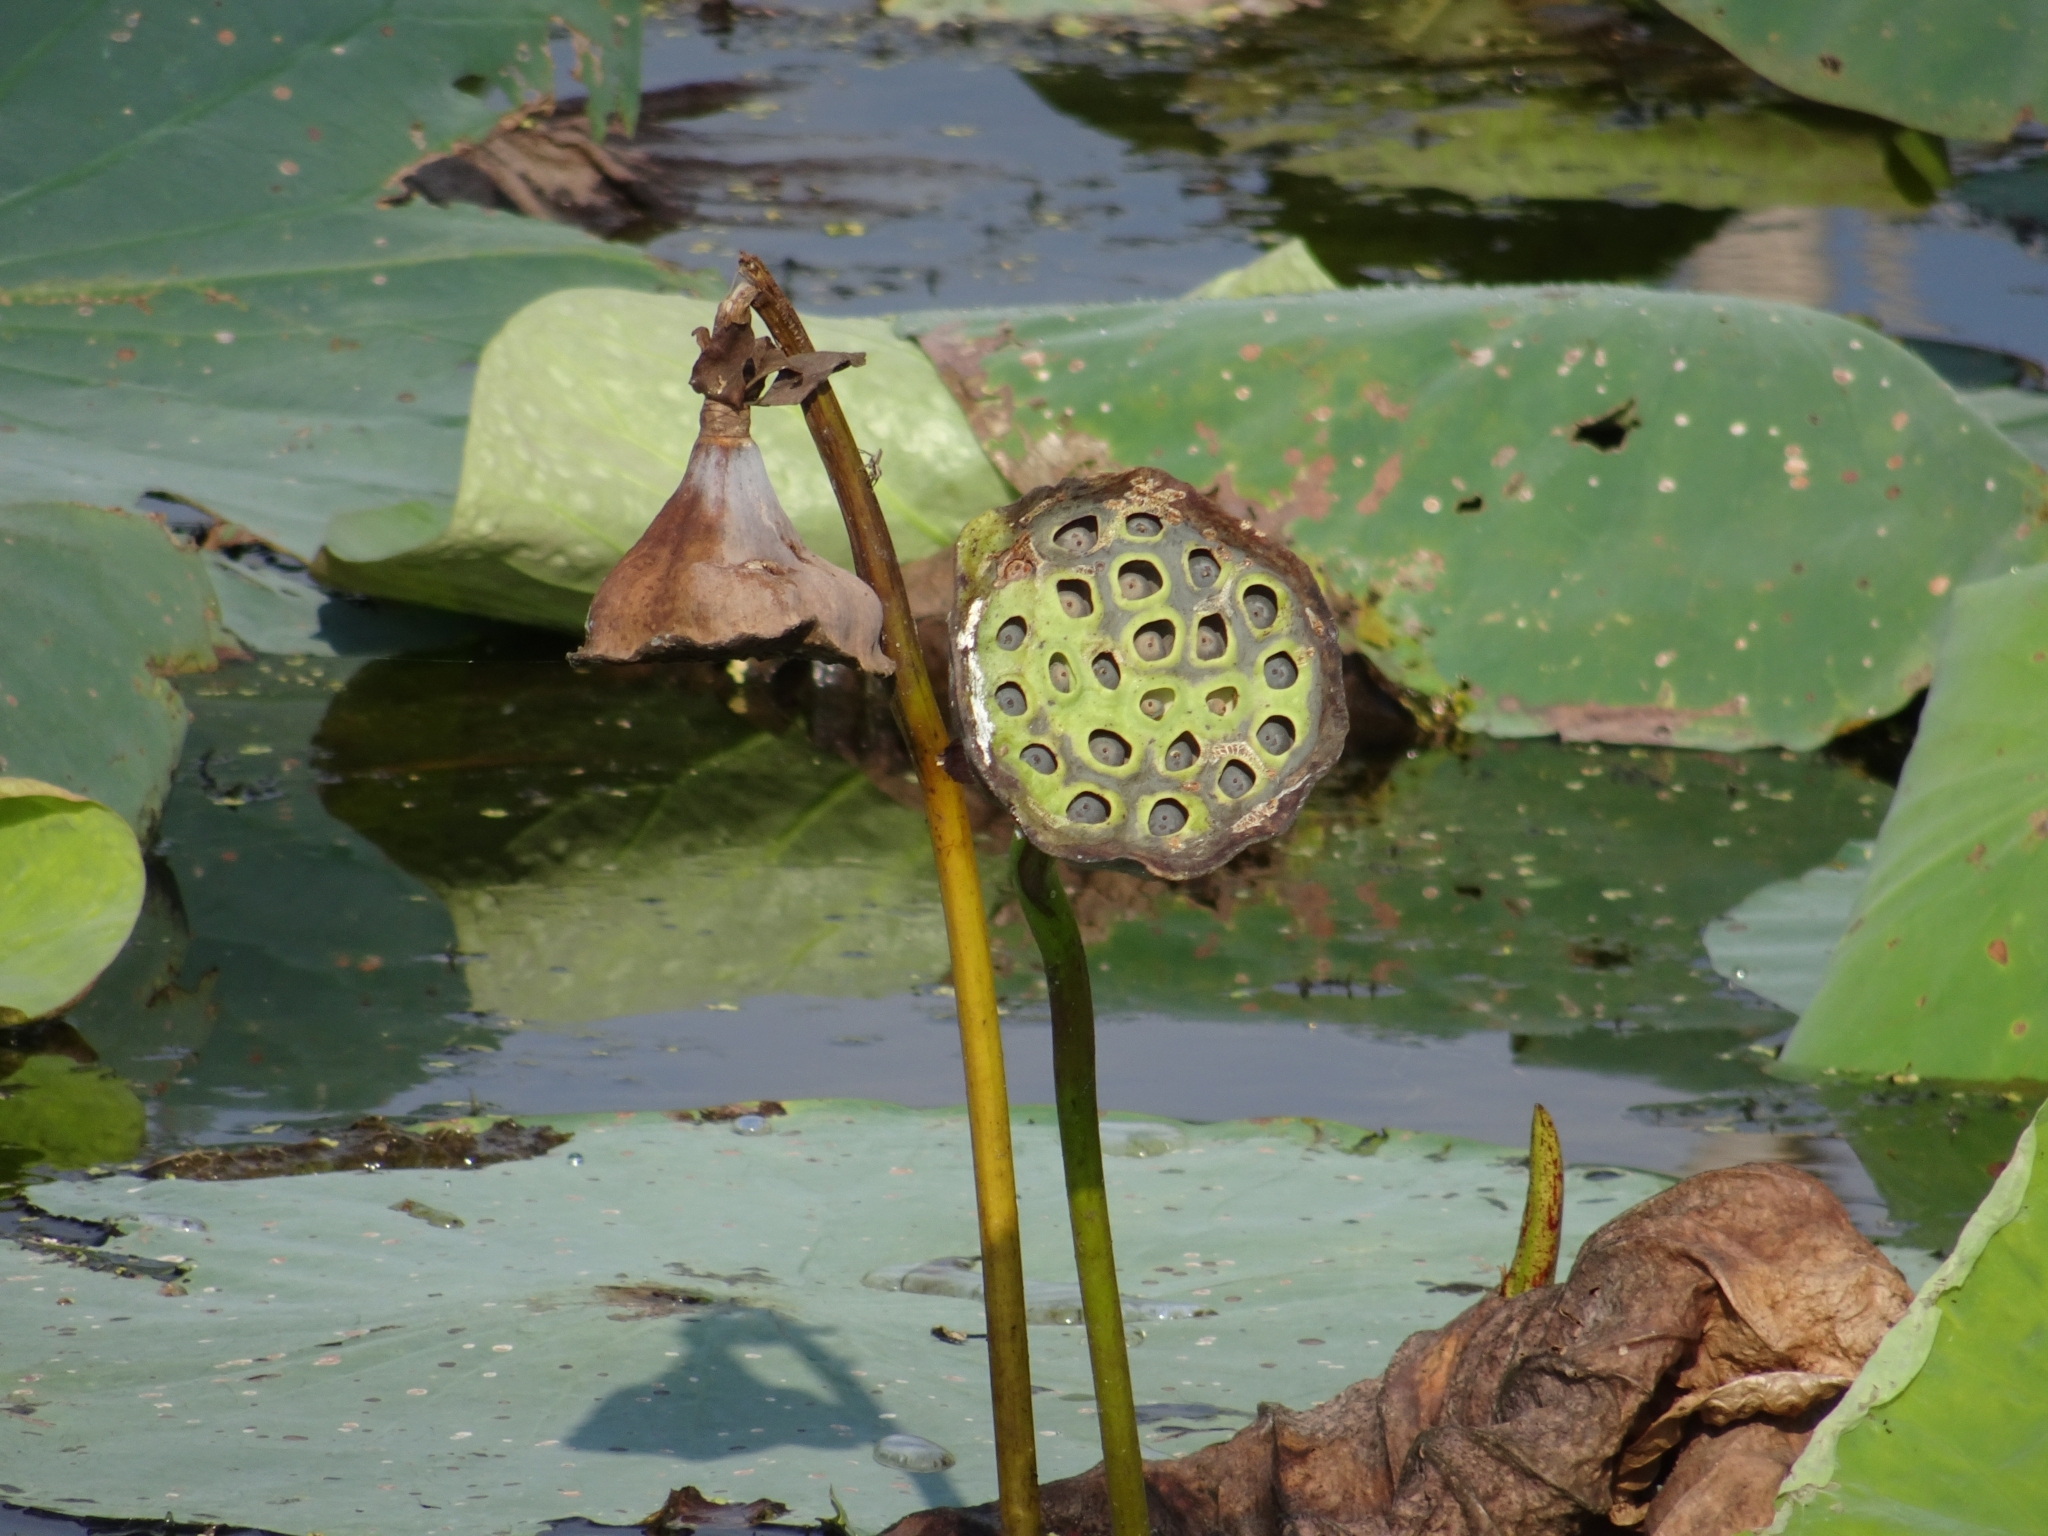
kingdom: Plantae
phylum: Tracheophyta
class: Magnoliopsida
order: Proteales
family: Nelumbonaceae
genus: Nelumbo
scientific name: Nelumbo lutea
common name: American lotus
